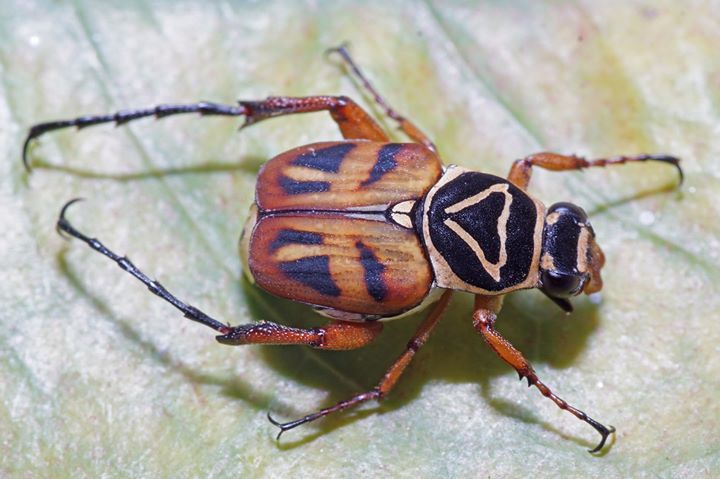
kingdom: Animalia
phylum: Arthropoda
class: Insecta
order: Coleoptera
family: Scarabaeidae
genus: Trigonopeltastes
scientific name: Trigonopeltastes delta
